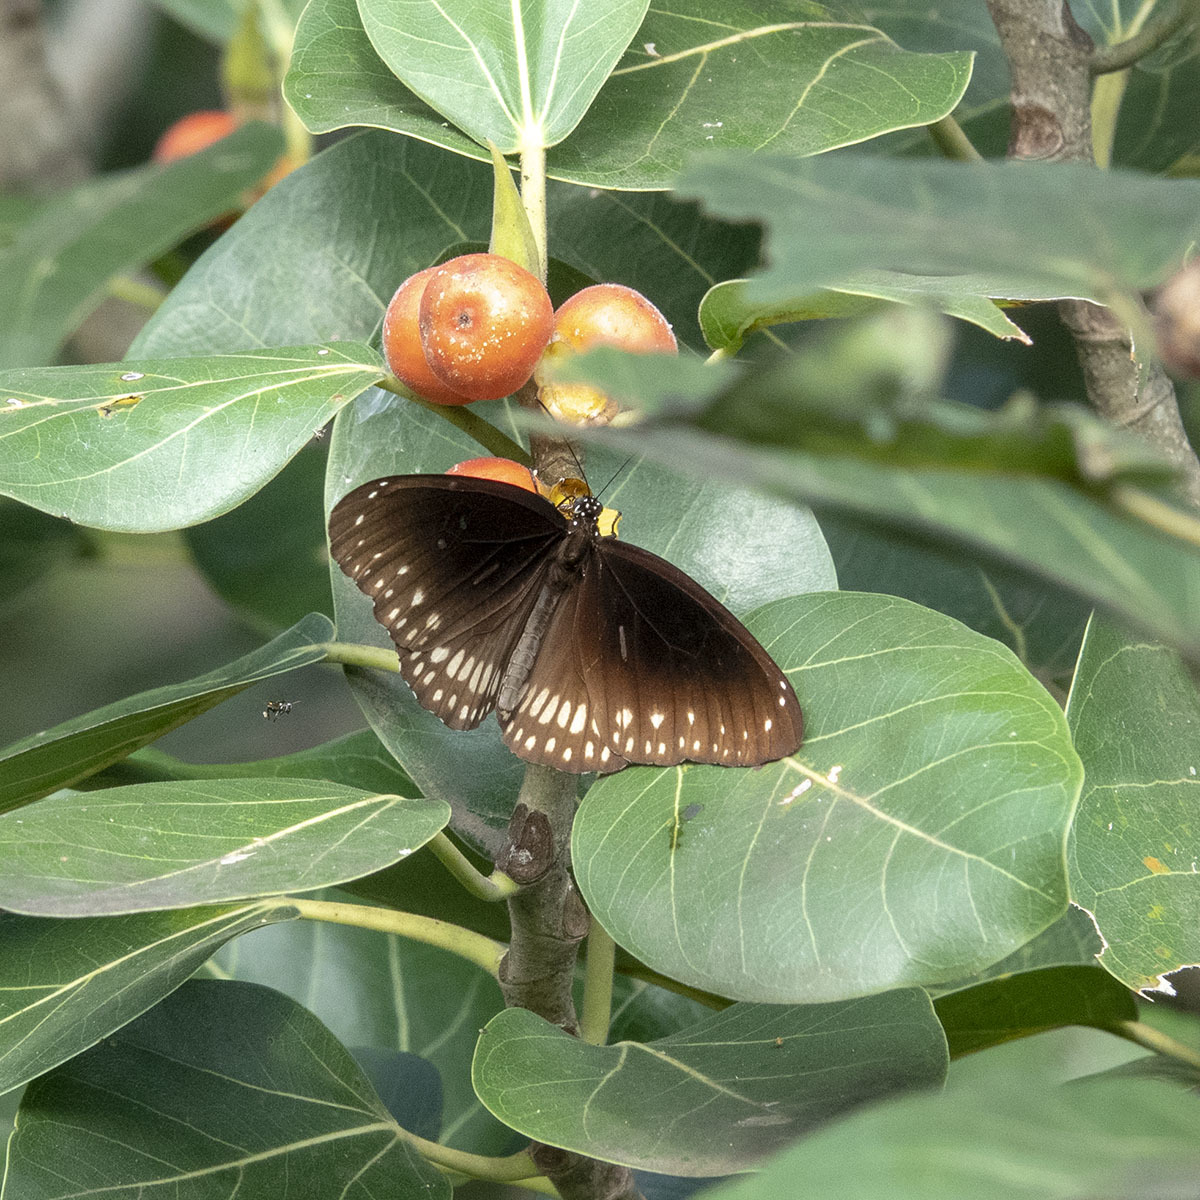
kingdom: Animalia
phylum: Arthropoda
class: Insecta
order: Lepidoptera
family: Nymphalidae
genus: Euploea
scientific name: Euploea core
